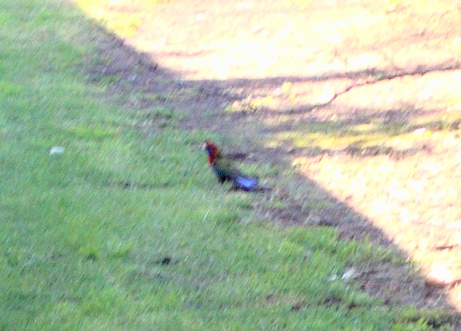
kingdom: Animalia
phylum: Chordata
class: Aves
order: Psittaciformes
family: Psittacidae
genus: Platycercus
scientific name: Platycercus elegans
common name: Crimson rosella
